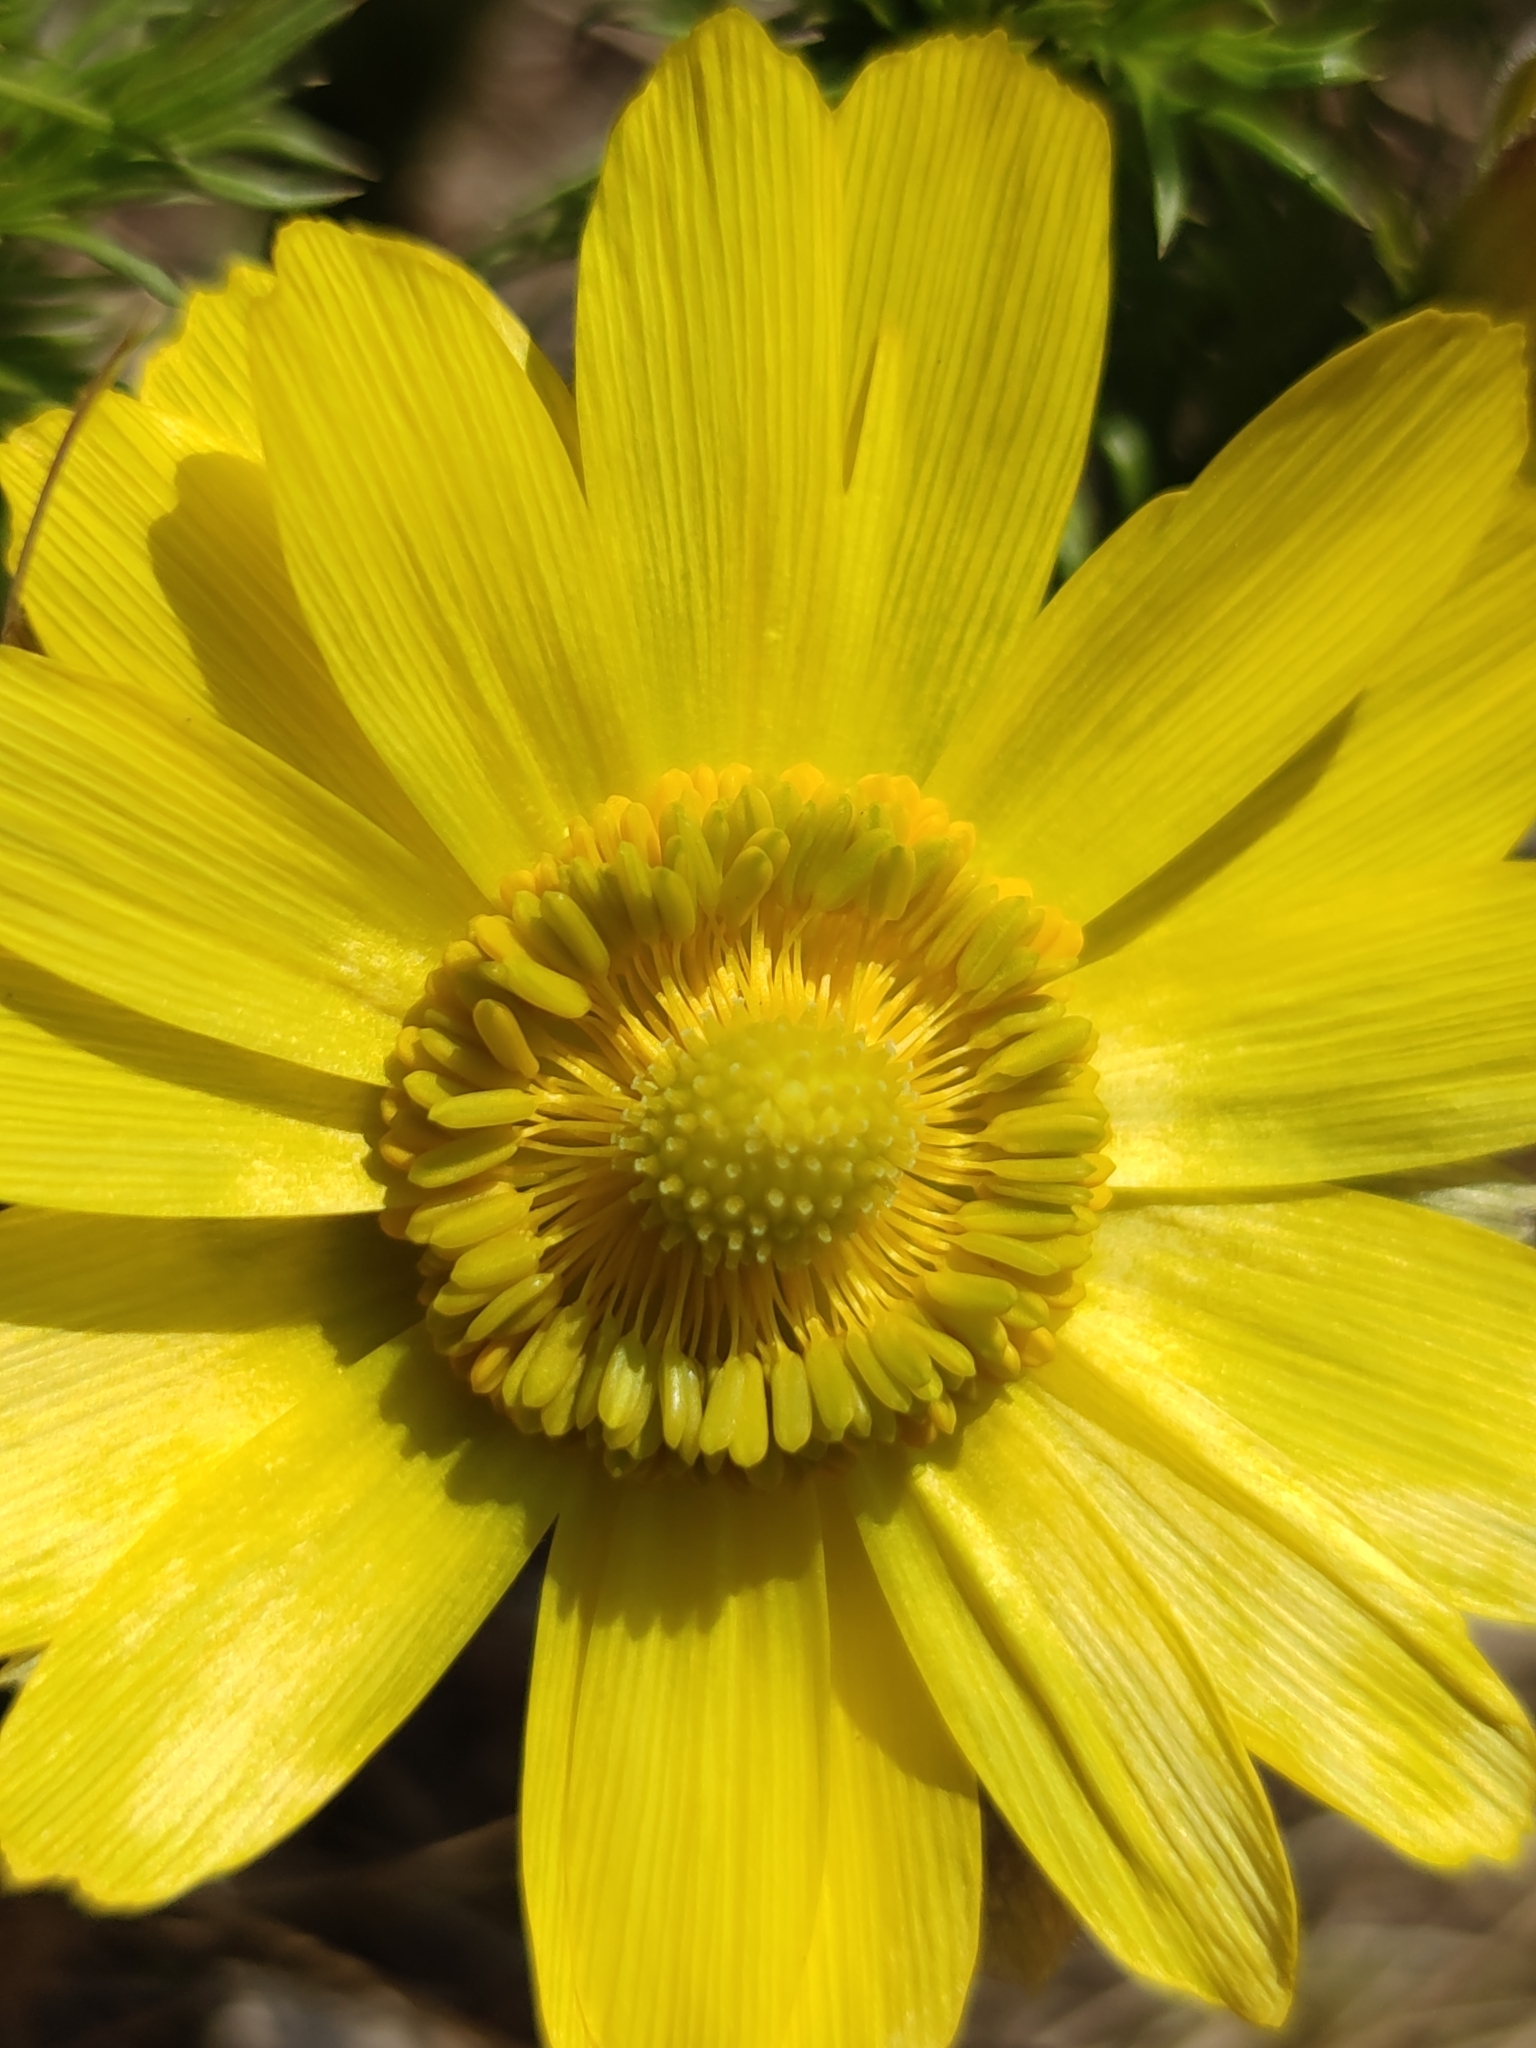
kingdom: Plantae
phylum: Tracheophyta
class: Magnoliopsida
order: Ranunculales
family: Ranunculaceae
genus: Adonis
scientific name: Adonis vernalis
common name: Yellow pheasants-eye
